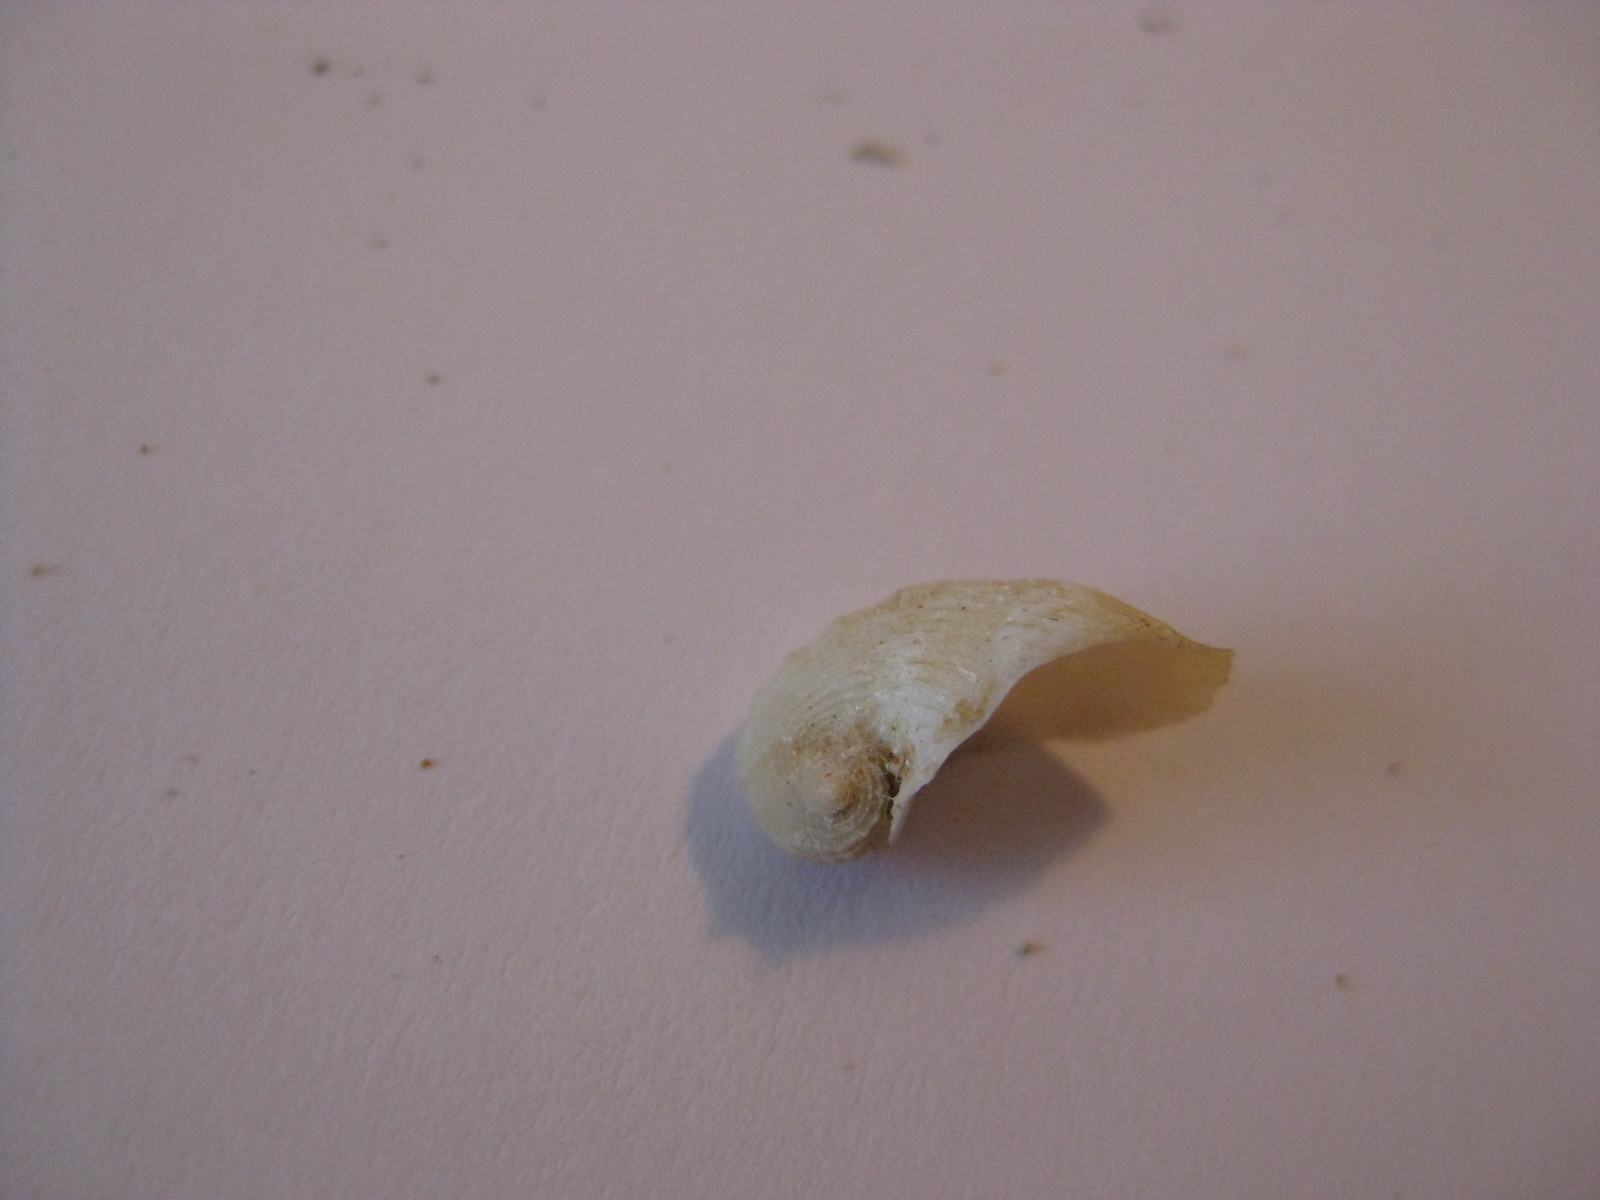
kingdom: Animalia
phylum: Mollusca
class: Gastropoda
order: Littorinimorpha
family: Capulidae
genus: Zelippistes
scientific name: Zelippistes benhami
